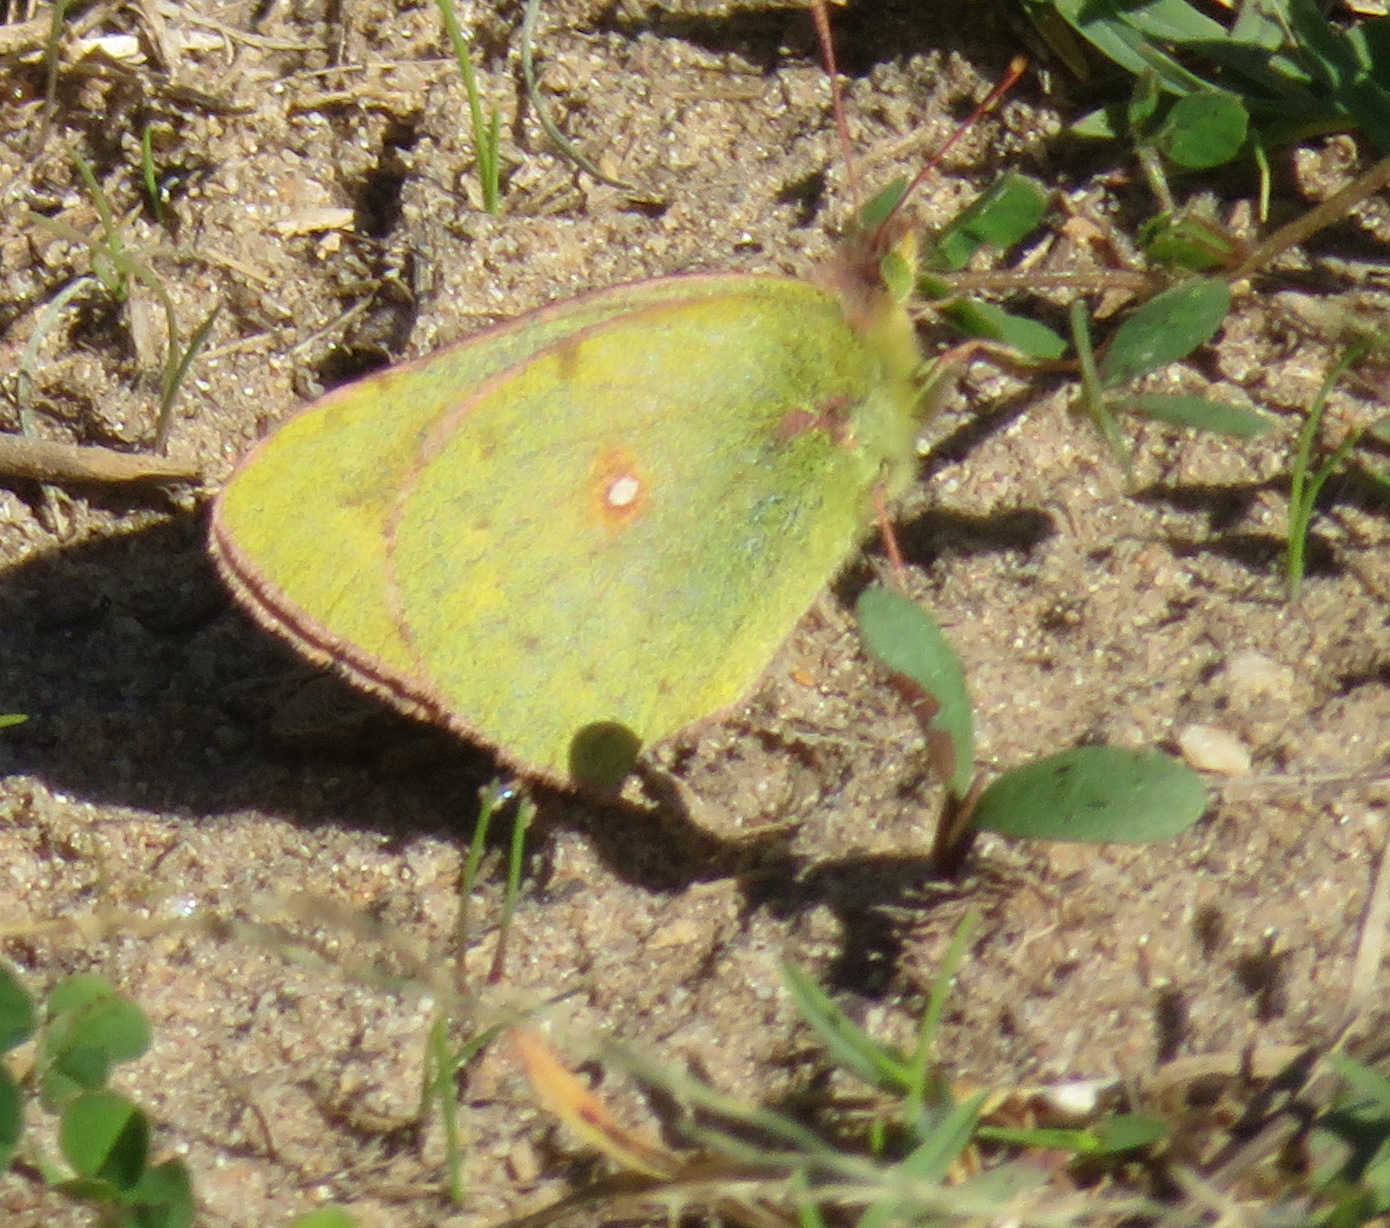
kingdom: Animalia
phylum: Arthropoda
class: Insecta
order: Lepidoptera
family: Pieridae
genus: Colias
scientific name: Colias electo
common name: African clouded yellow
